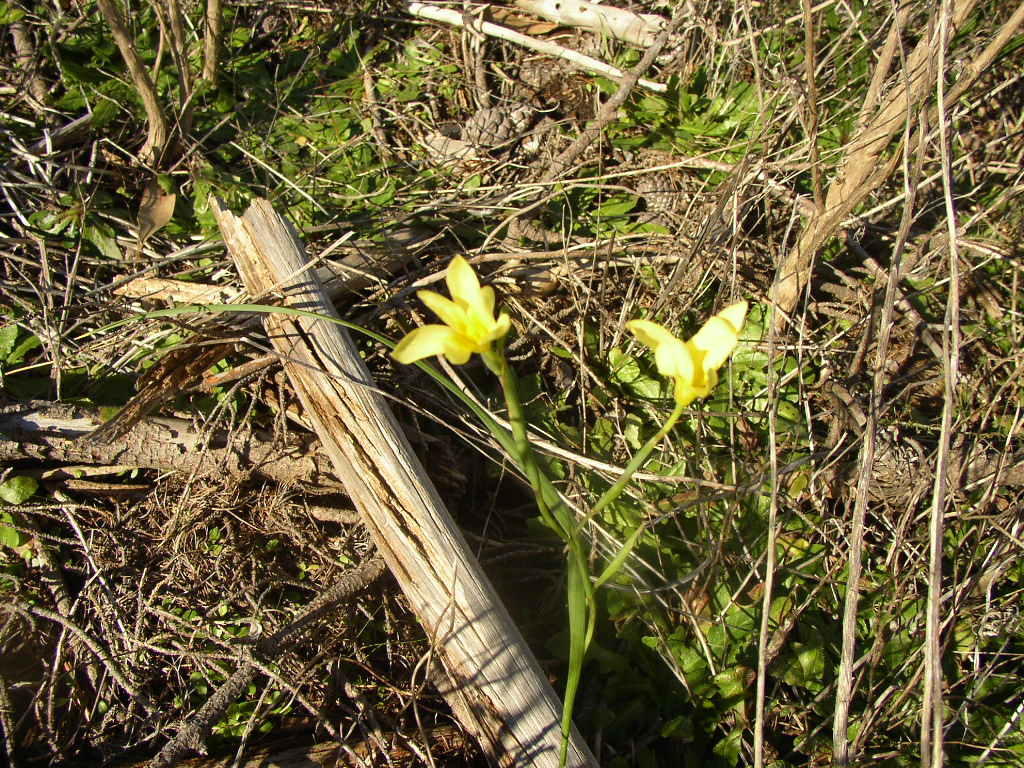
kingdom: Plantae
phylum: Tracheophyta
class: Liliopsida
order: Asparagales
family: Iridaceae
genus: Moraea
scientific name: Moraea collina
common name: Cape-tulip
